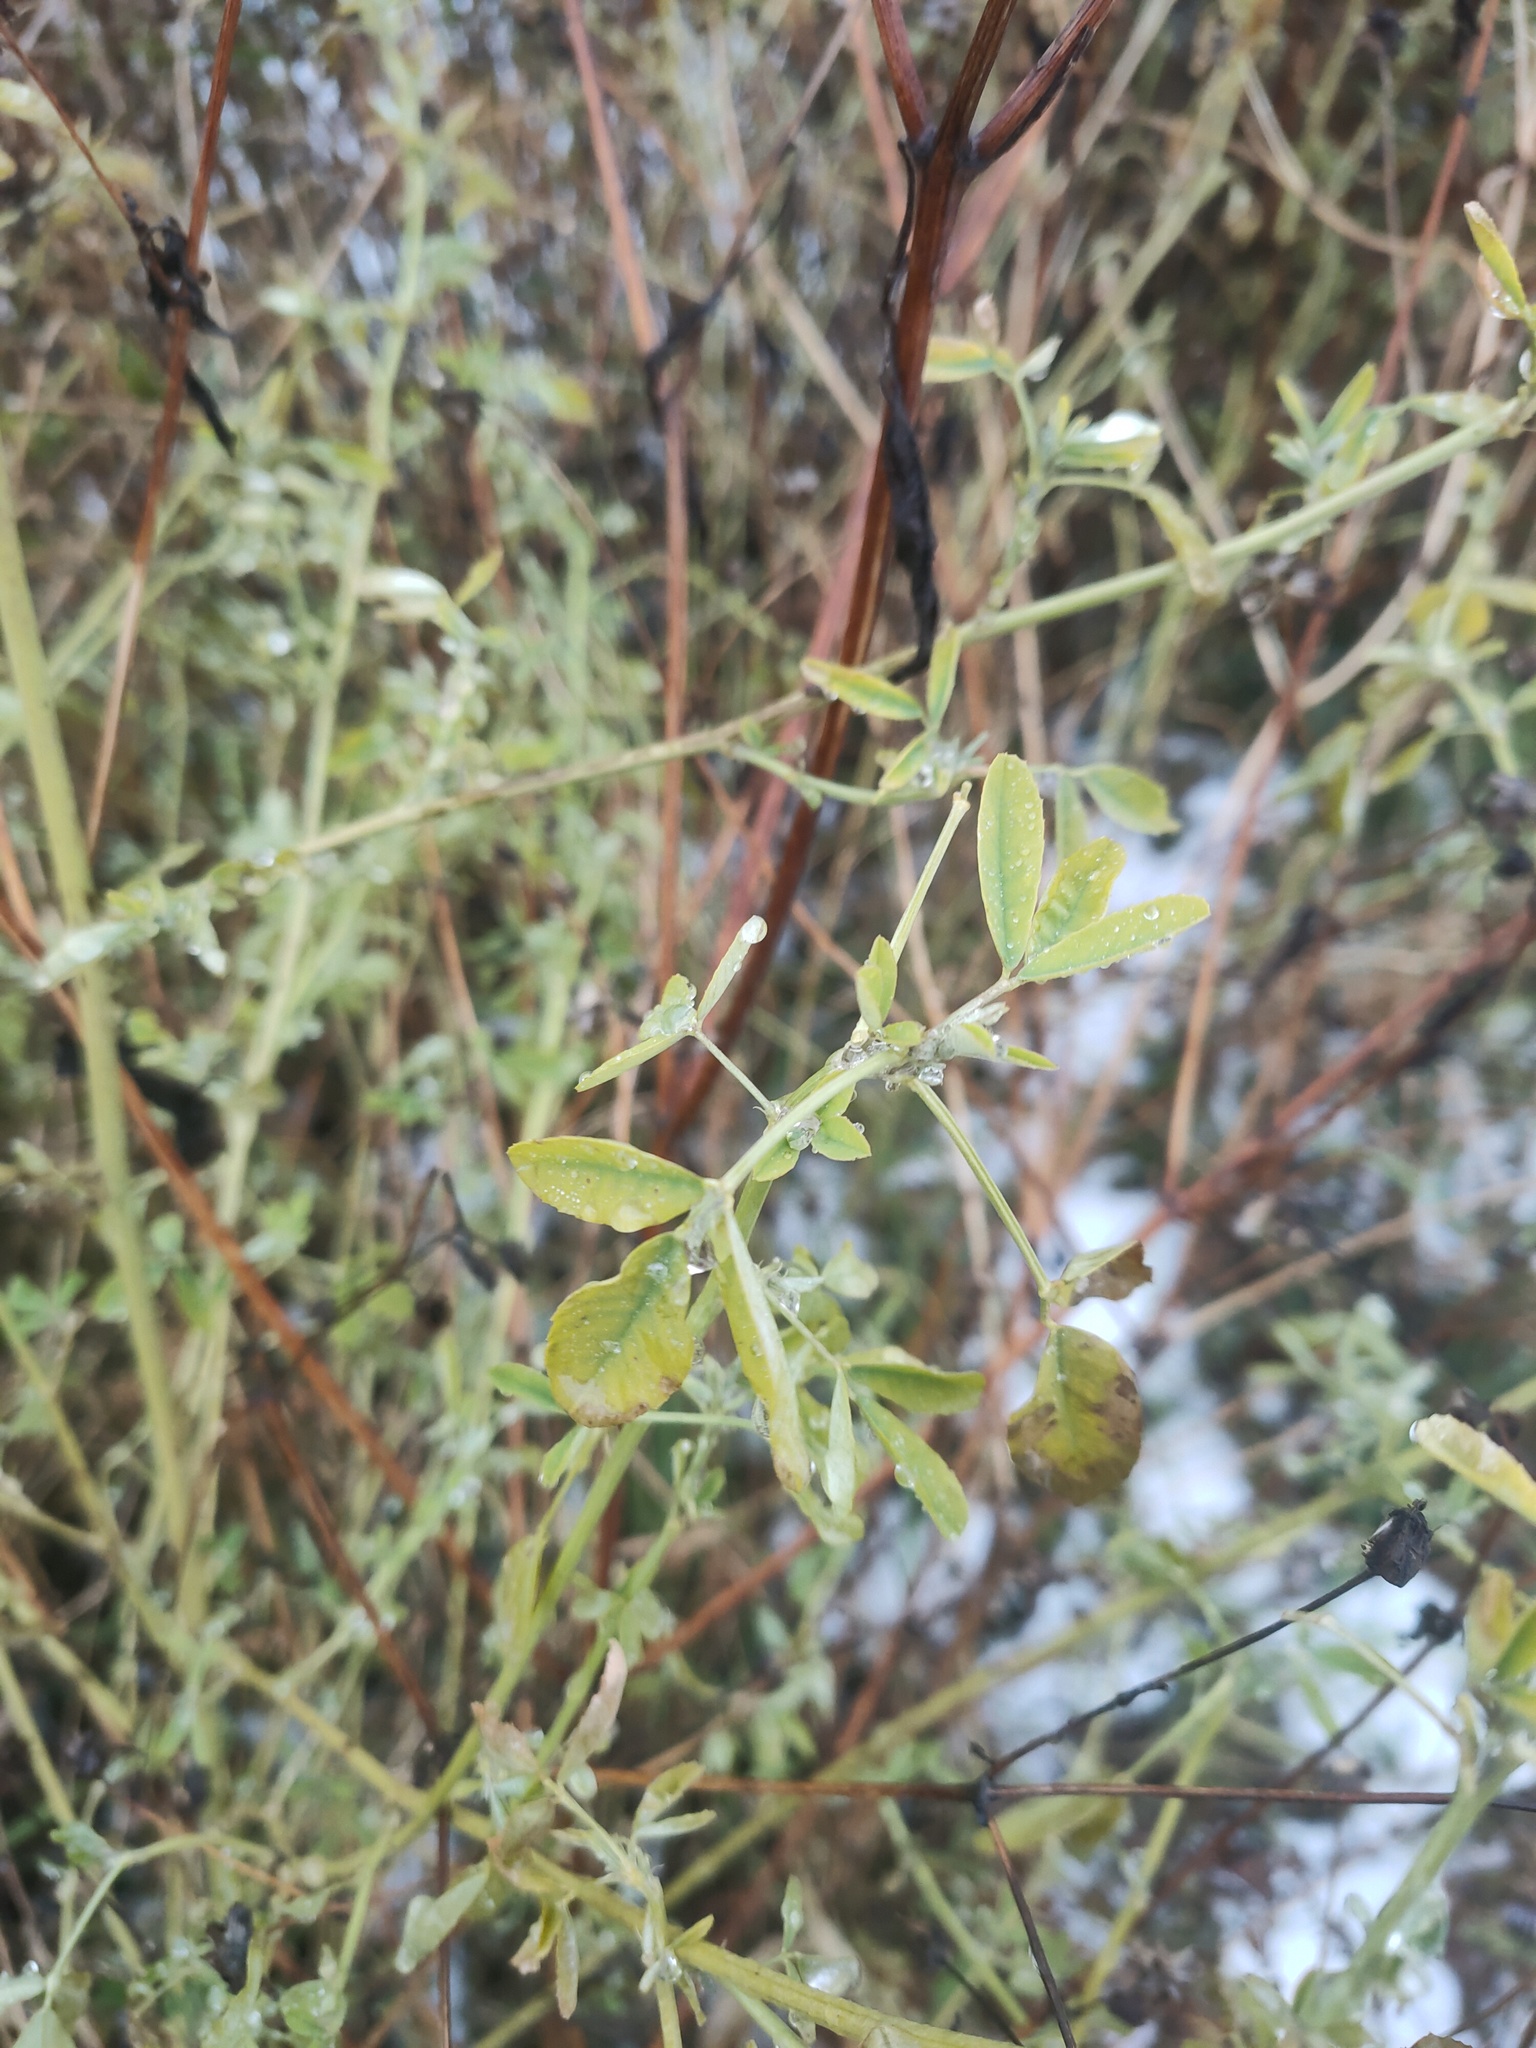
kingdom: Plantae
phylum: Tracheophyta
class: Magnoliopsida
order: Fabales
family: Fabaceae
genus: Melilotus
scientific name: Melilotus
